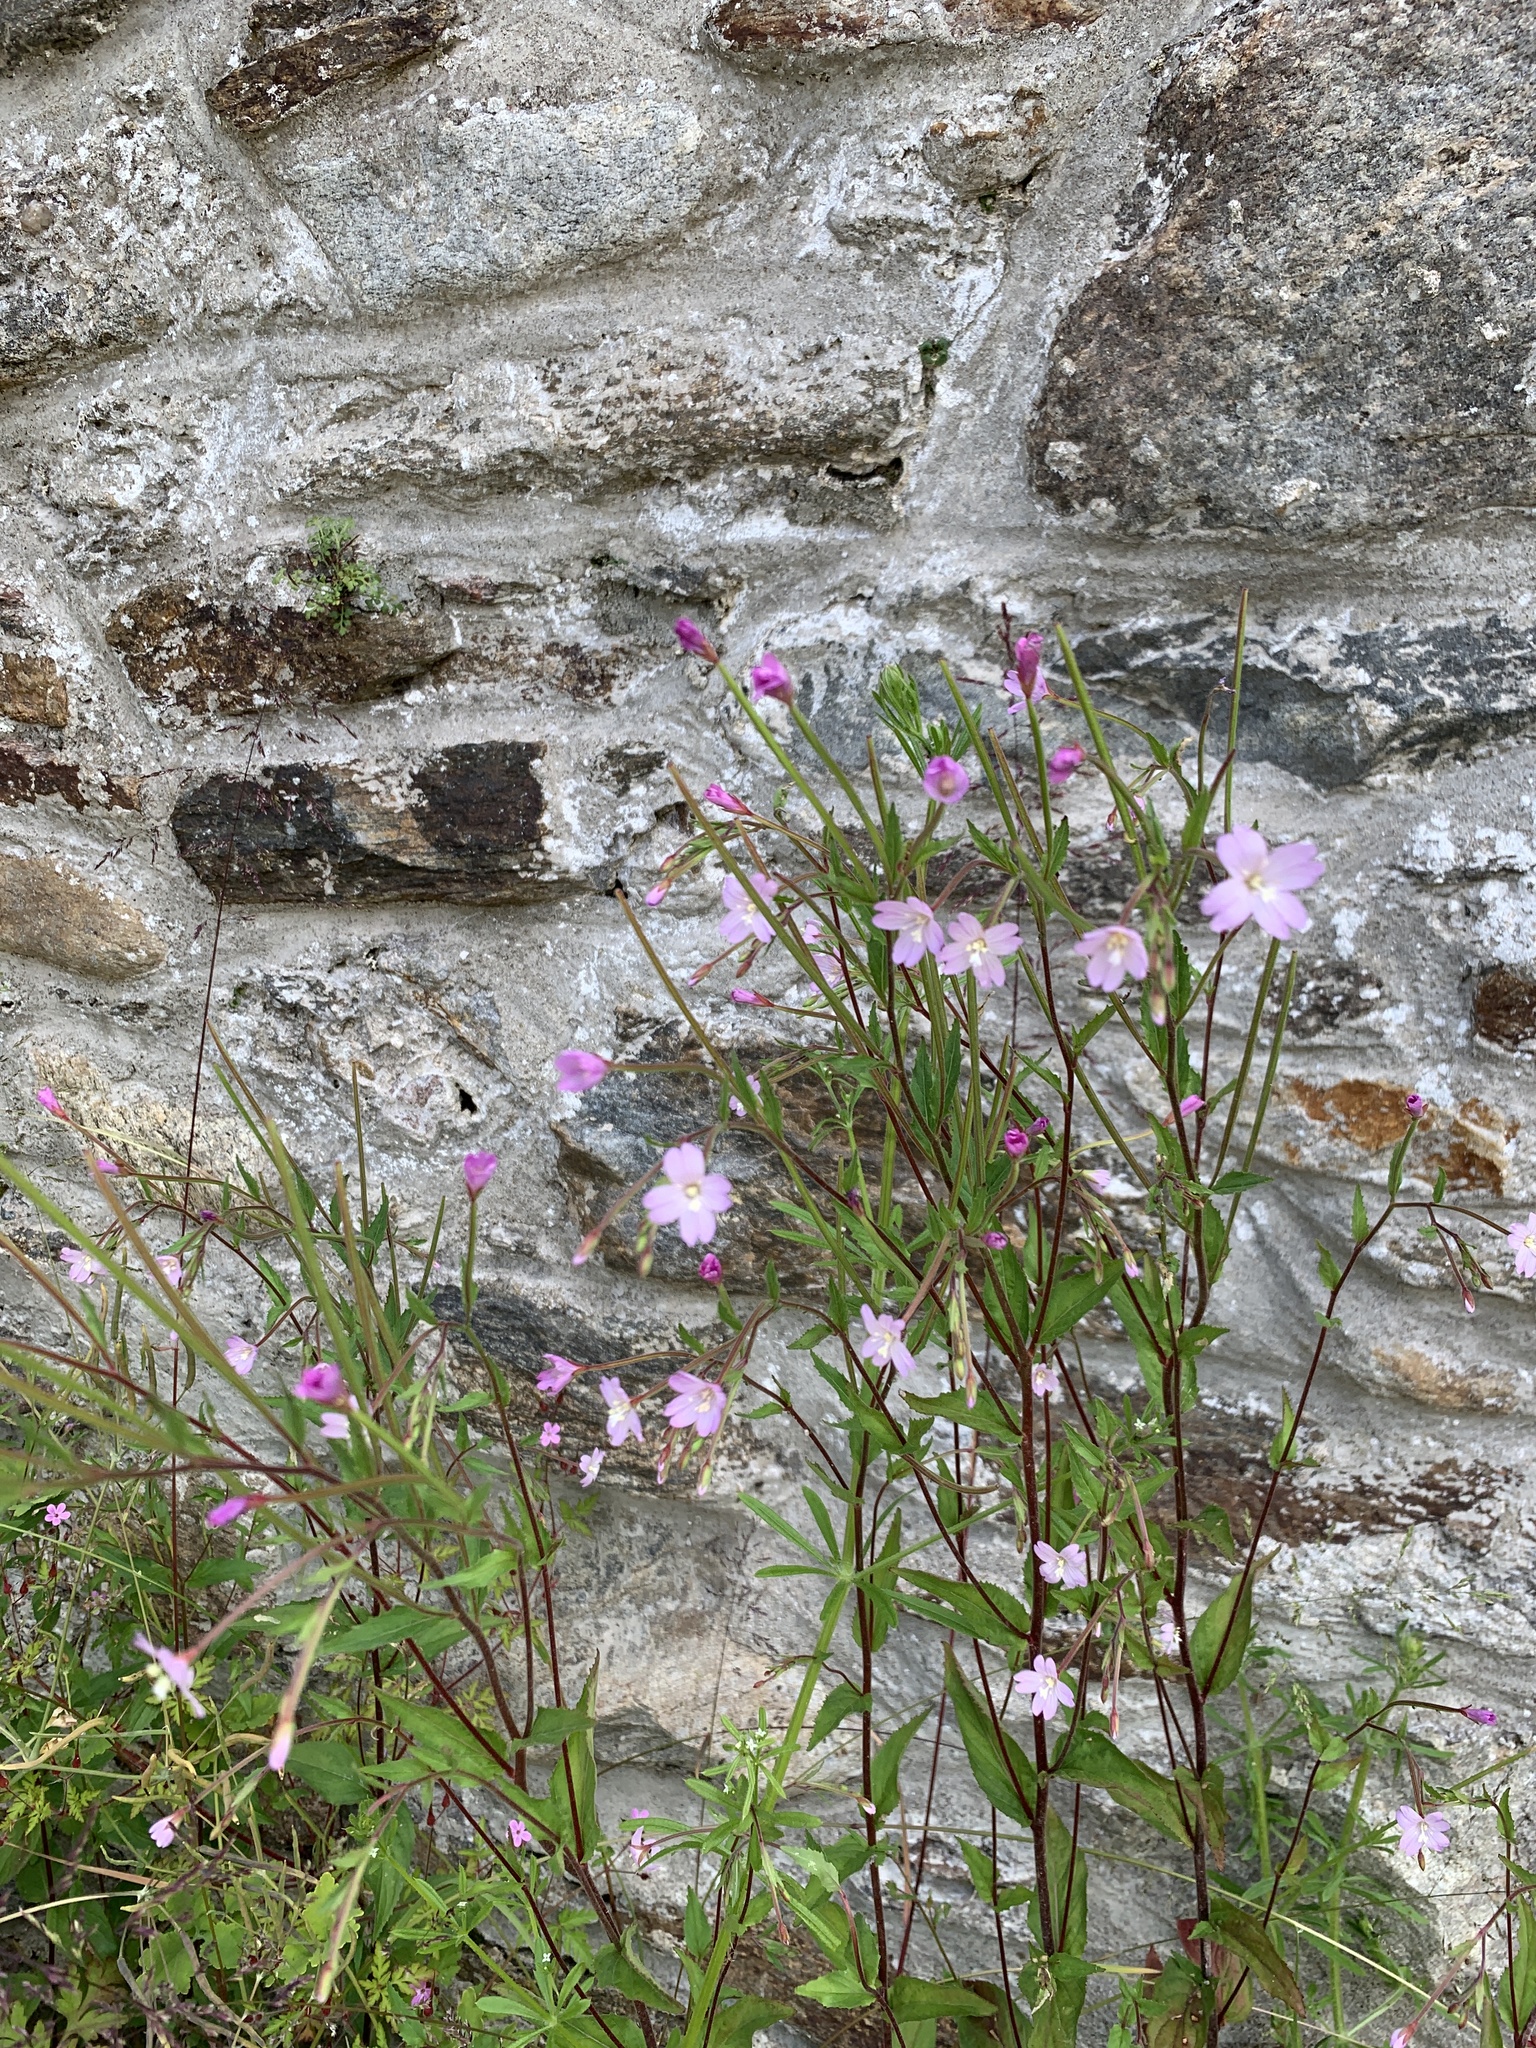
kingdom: Plantae
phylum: Tracheophyta
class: Magnoliopsida
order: Myrtales
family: Onagraceae
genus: Epilobium
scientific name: Epilobium montanum
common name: Broad-leaved willowherb
